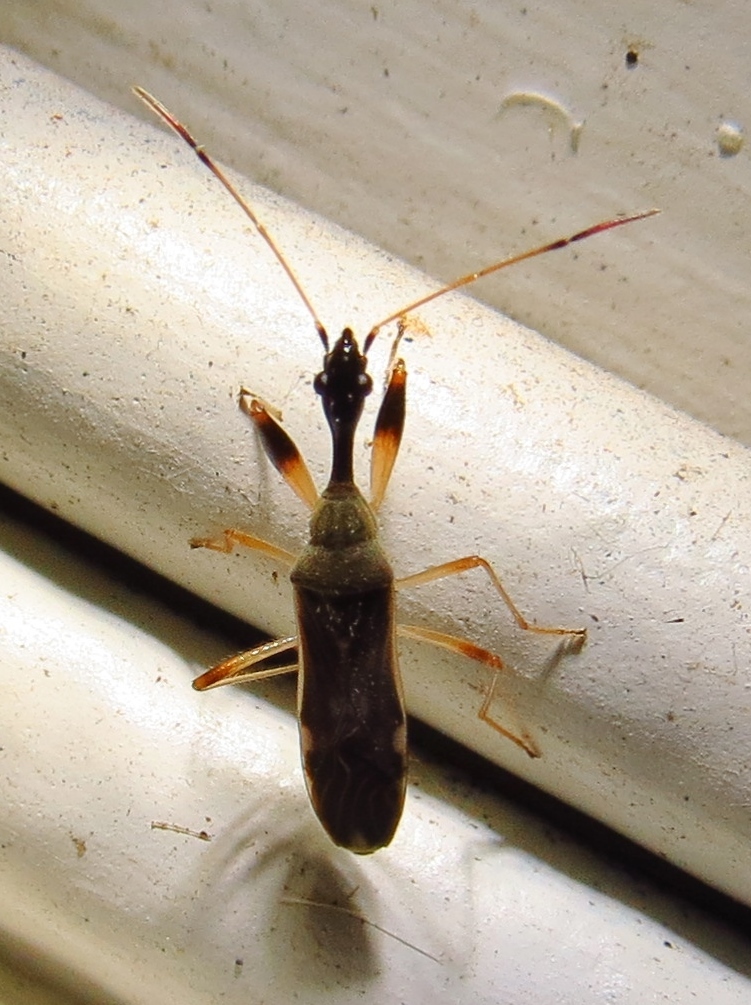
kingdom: Animalia
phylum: Arthropoda
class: Insecta
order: Hemiptera
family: Rhyparochromidae
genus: Myodocha
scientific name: Myodocha serripes
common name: Long-necked seed bug
